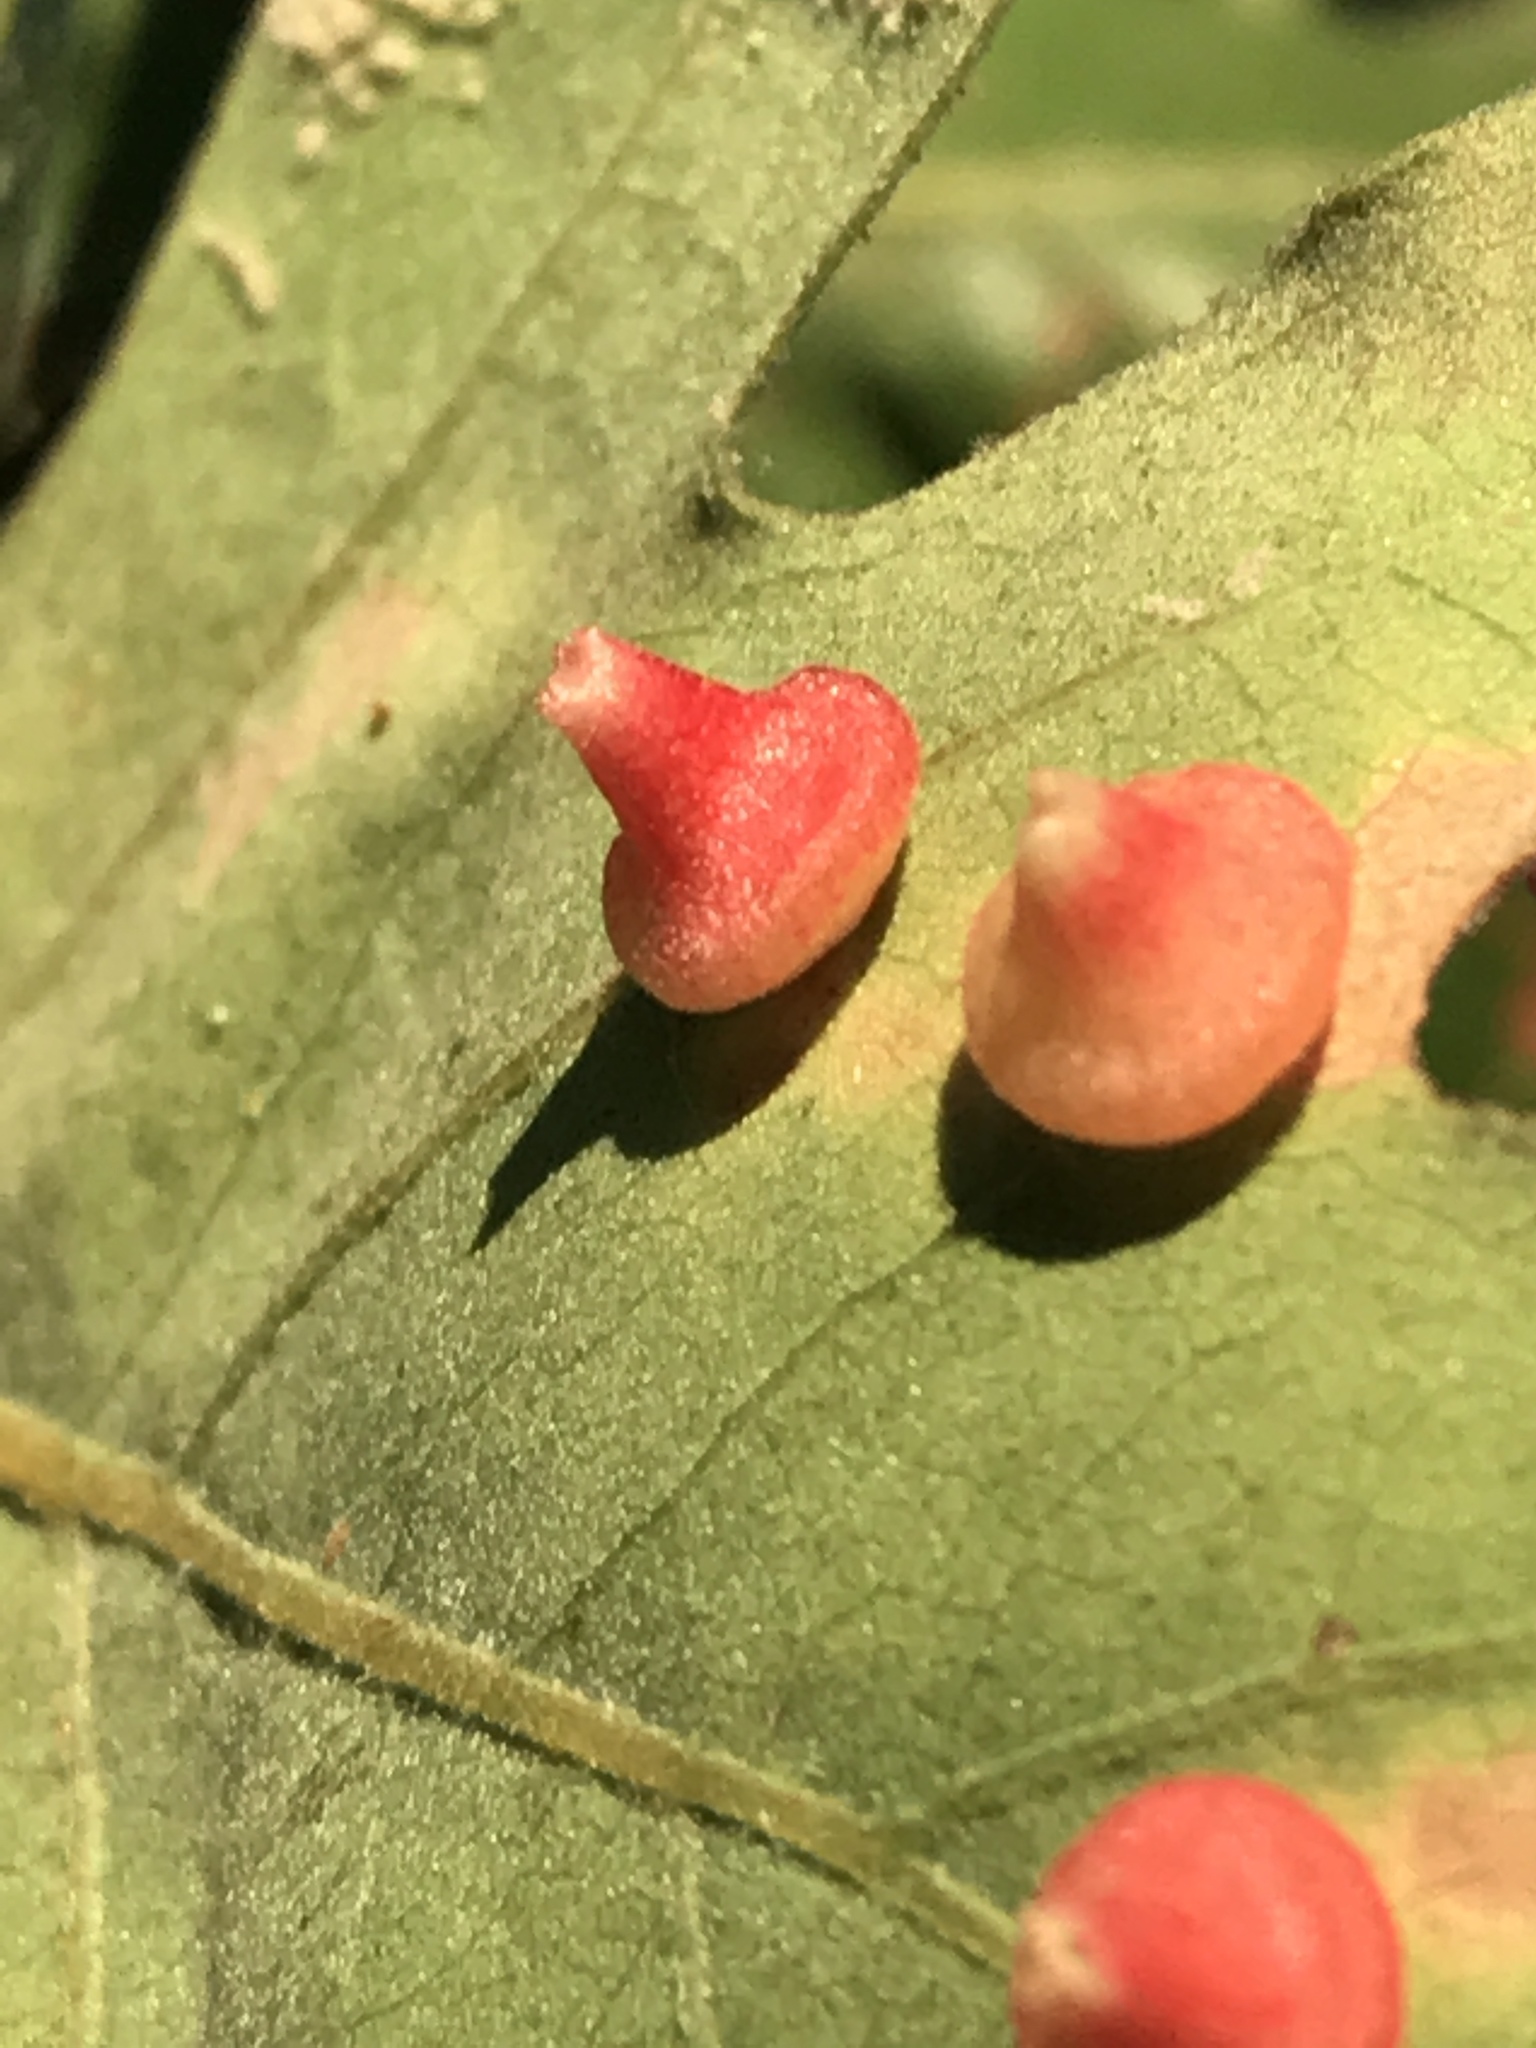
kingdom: Animalia
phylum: Arthropoda
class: Insecta
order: Hymenoptera
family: Cynipidae
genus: Andricus
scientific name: Andricus
